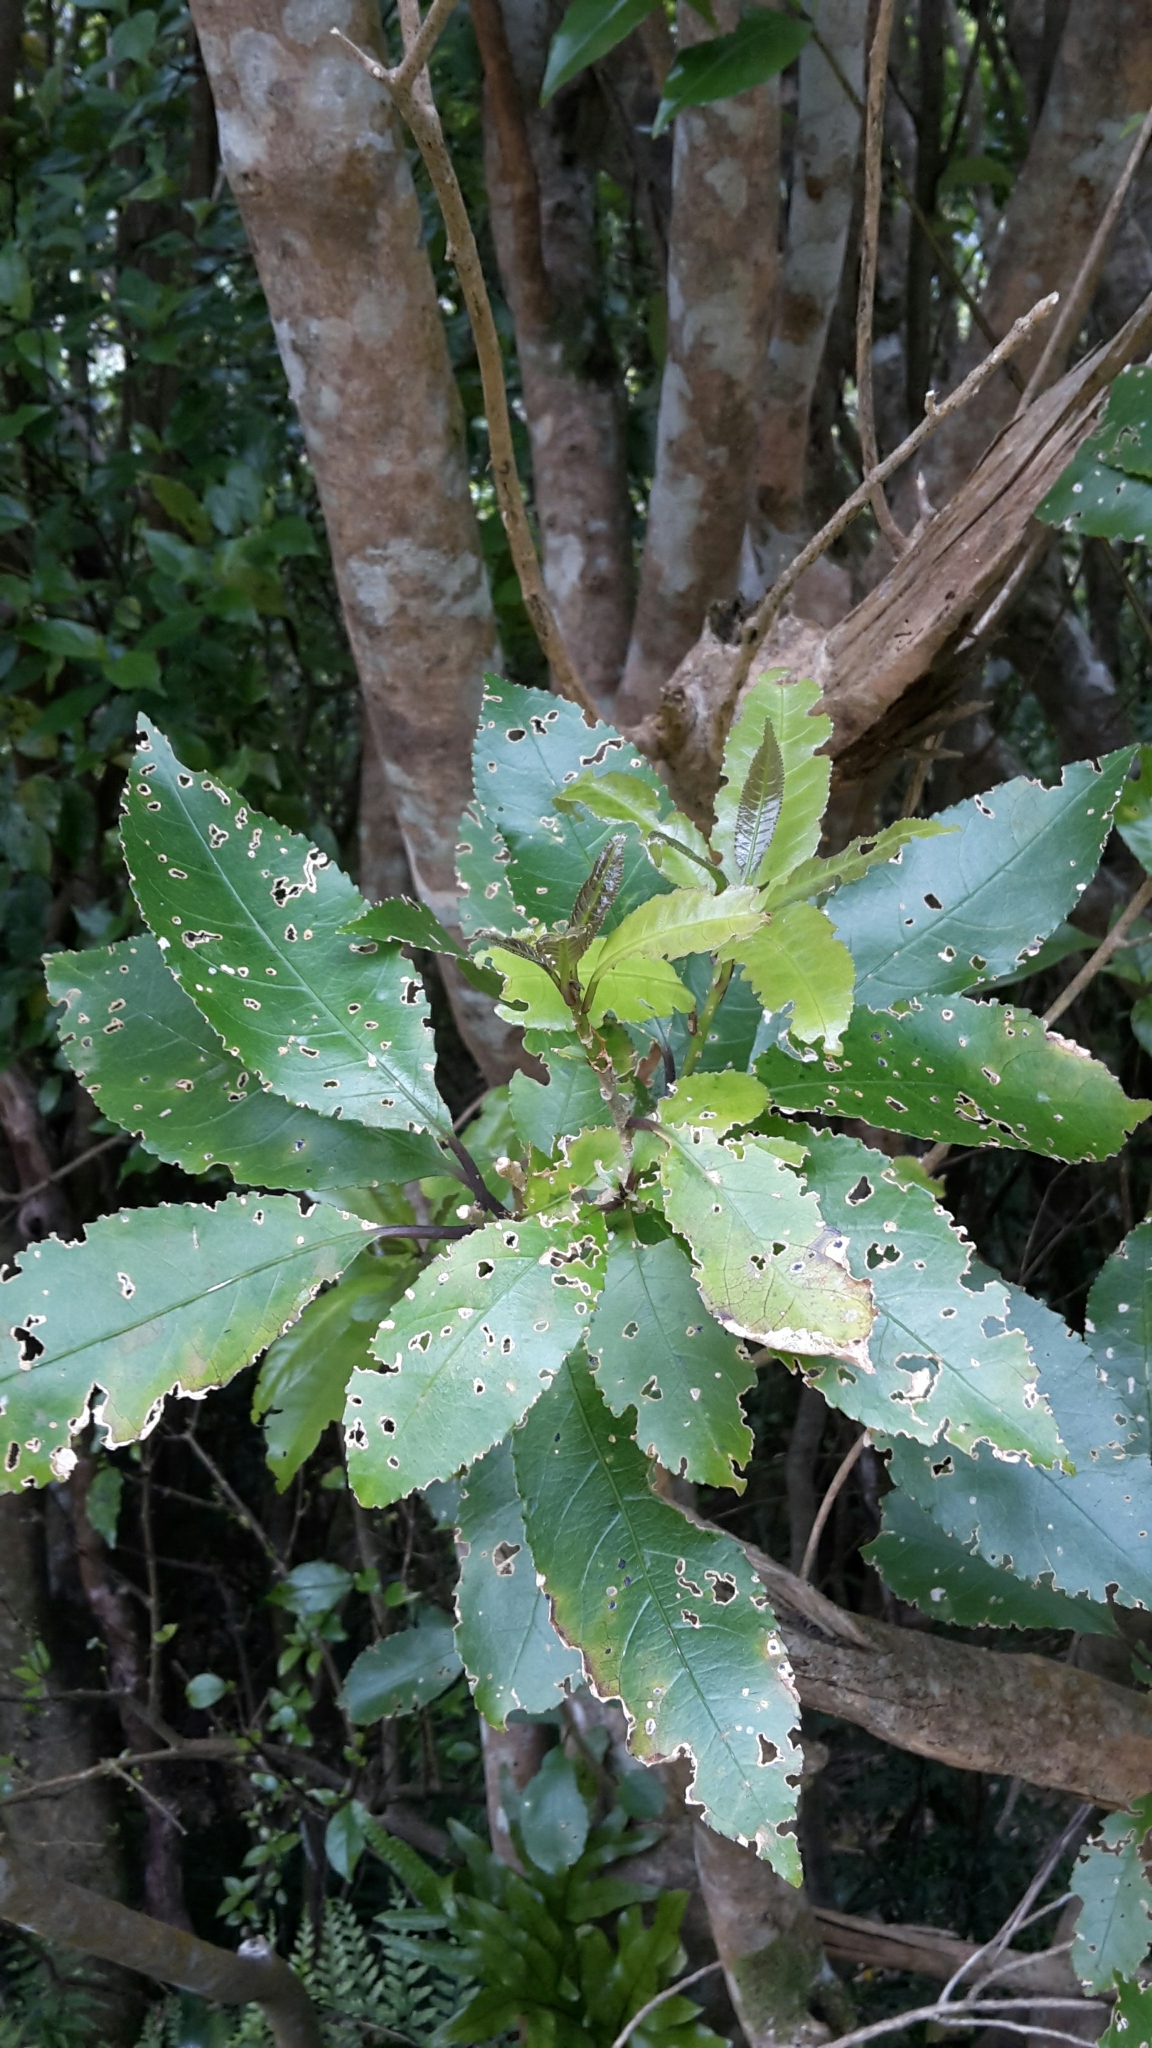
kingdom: Plantae
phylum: Tracheophyta
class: Magnoliopsida
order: Malpighiales
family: Violaceae
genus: Melicytus
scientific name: Melicytus ramiflorus
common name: Mahoe
